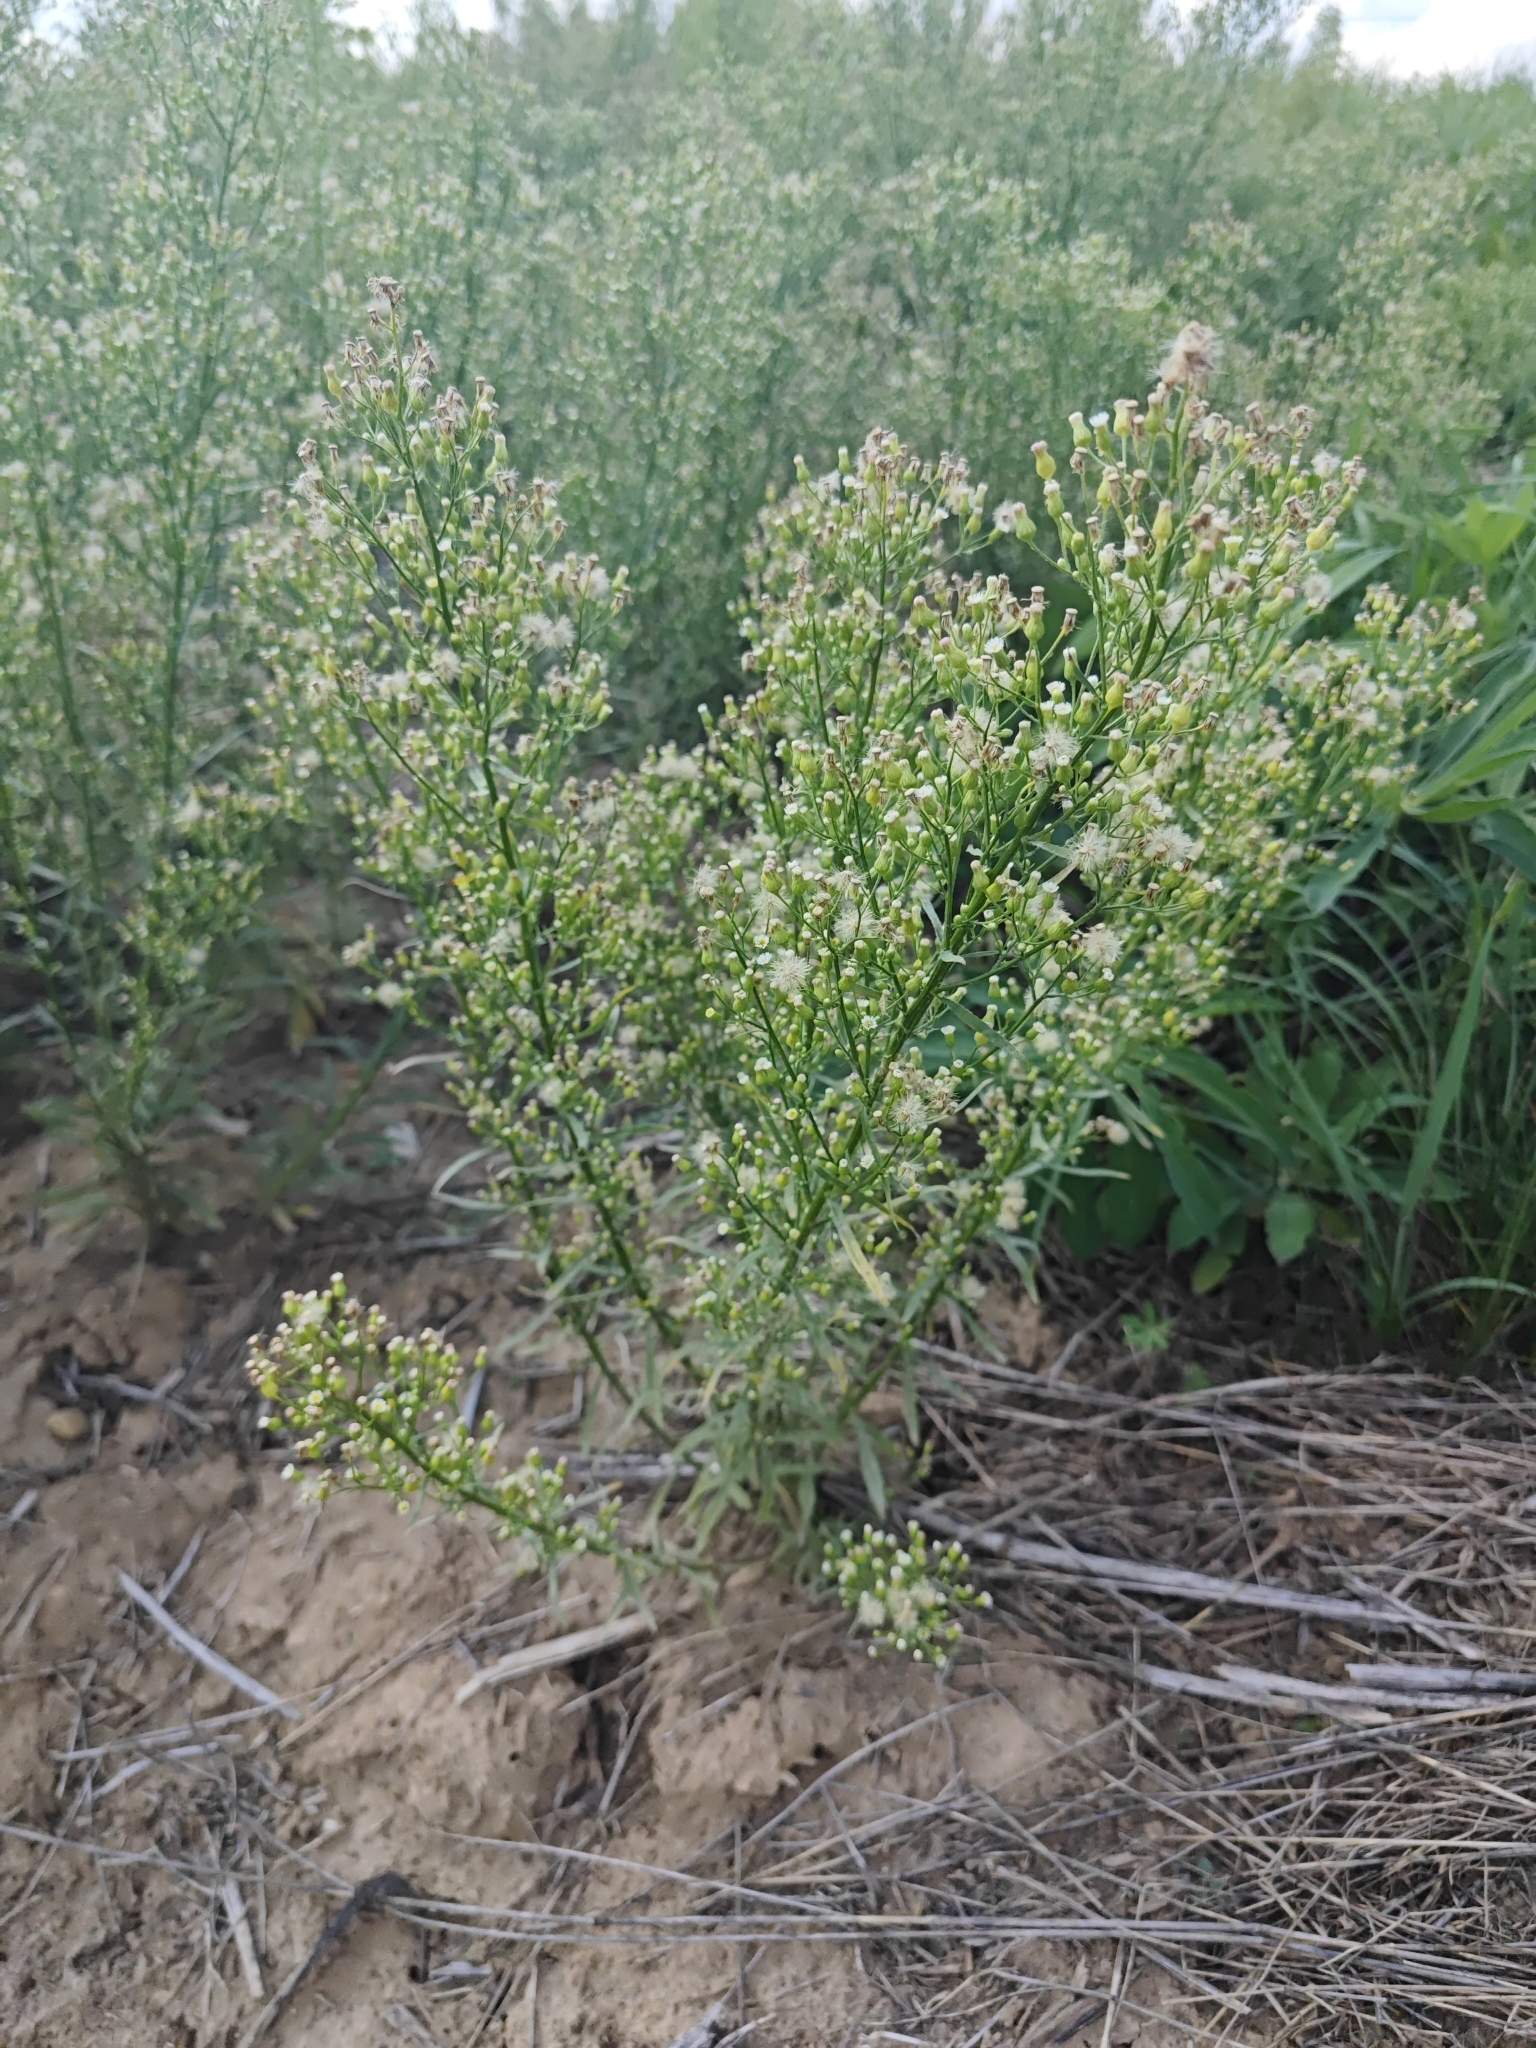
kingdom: Plantae
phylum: Tracheophyta
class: Magnoliopsida
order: Asterales
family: Asteraceae
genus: Erigeron
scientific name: Erigeron canadensis
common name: Canadian fleabane
